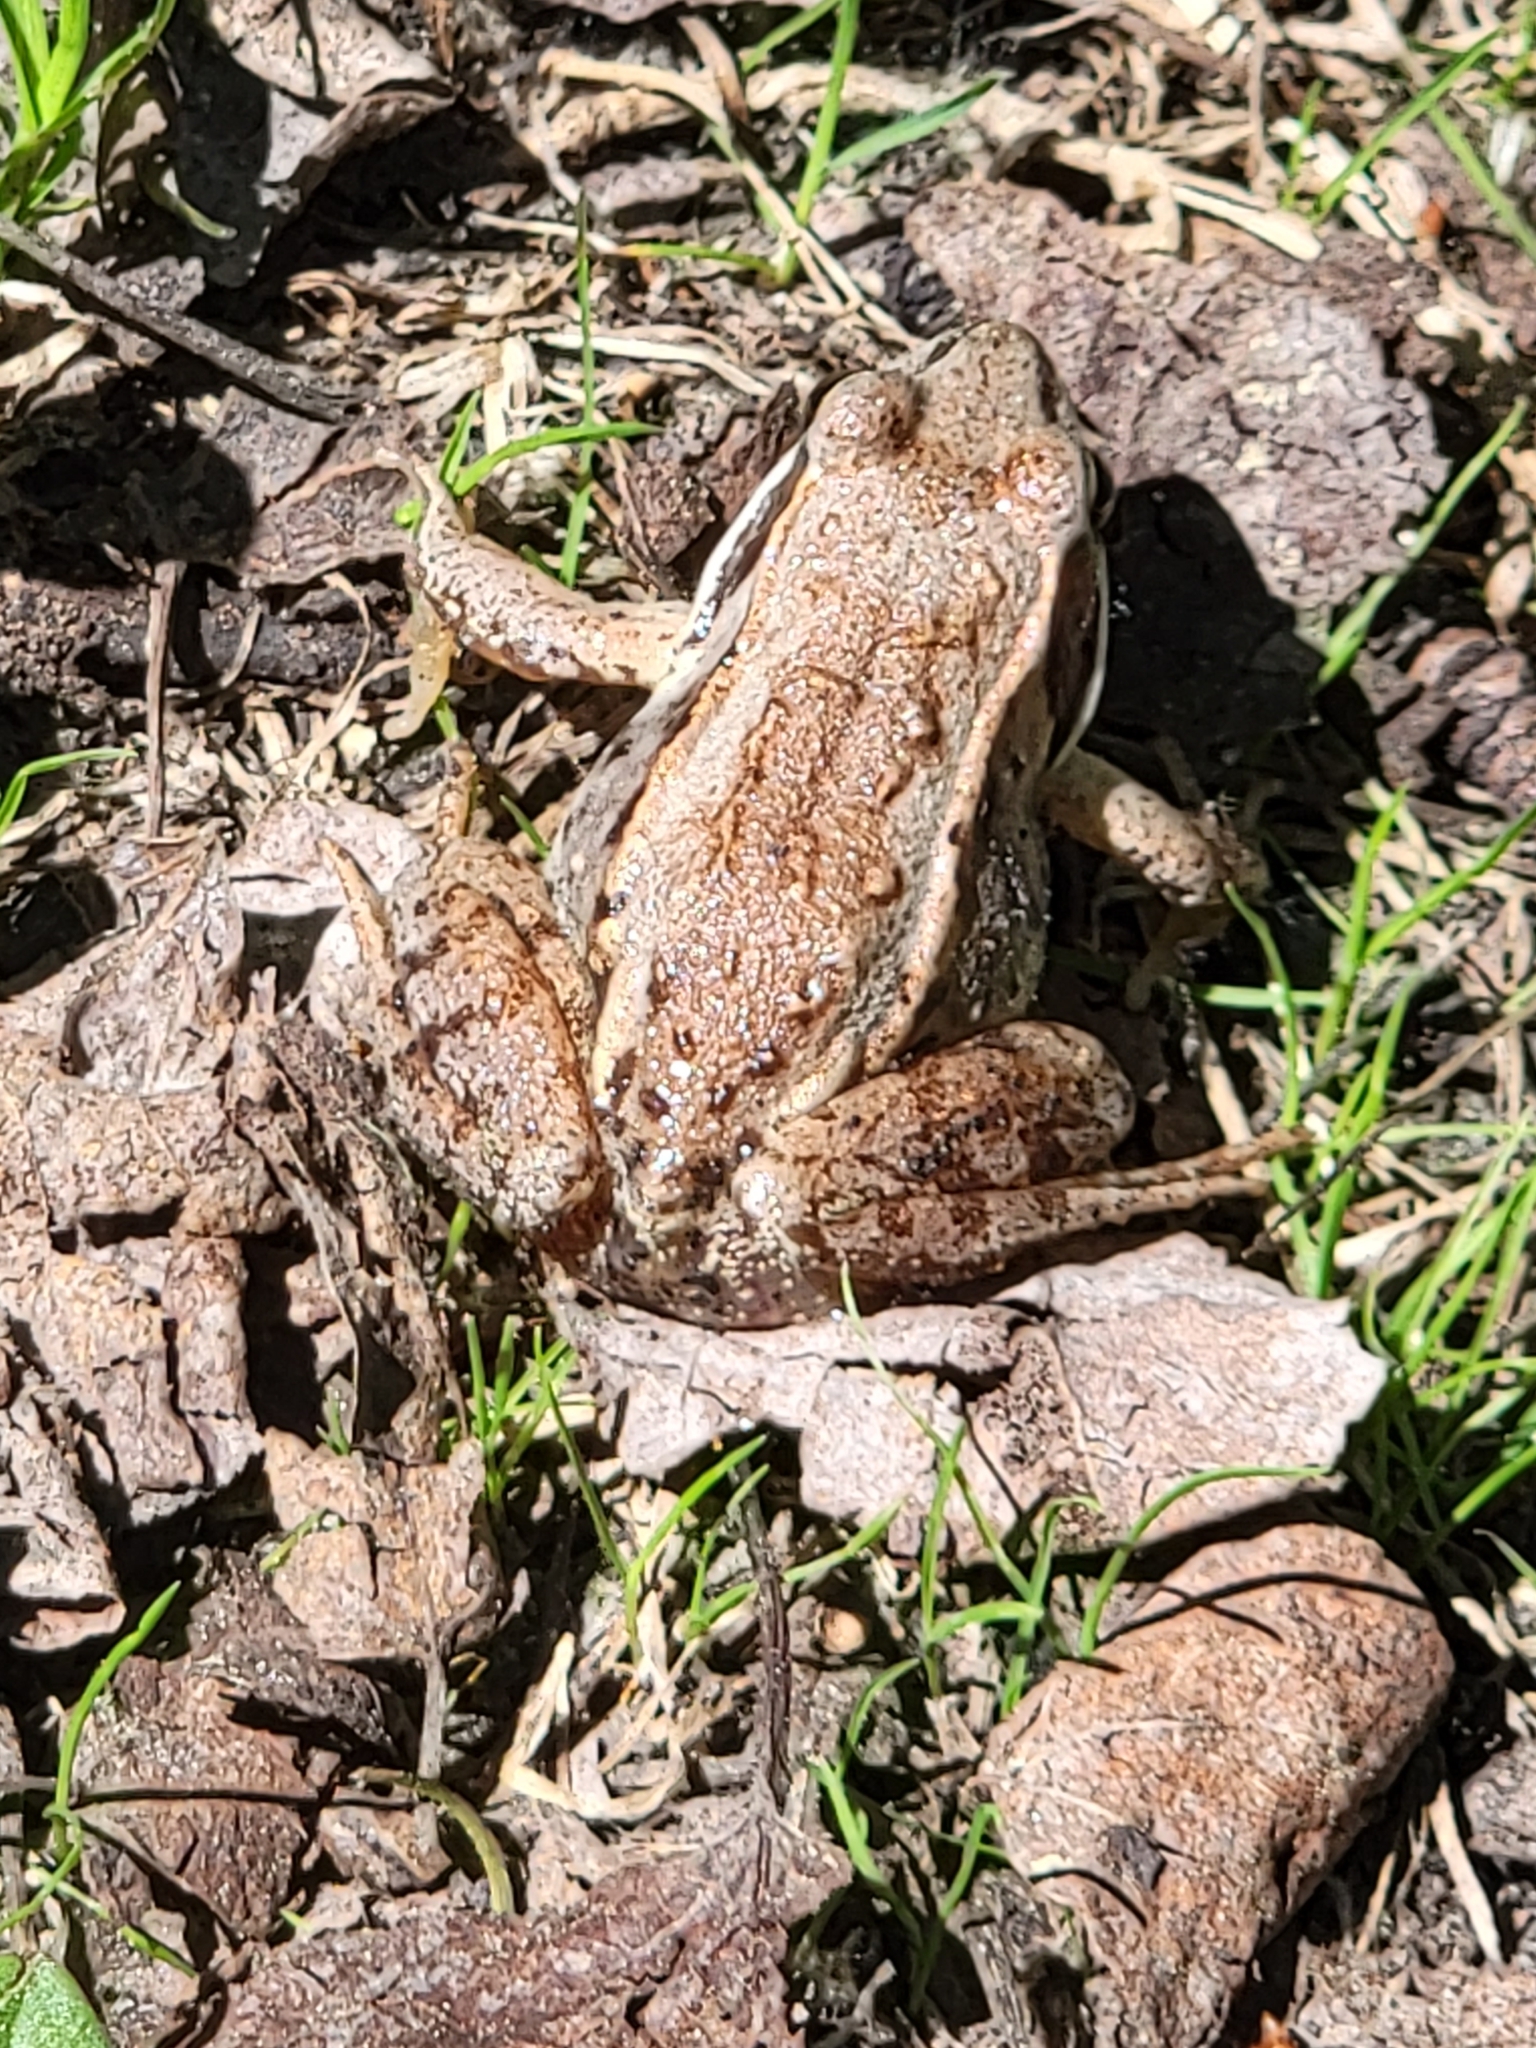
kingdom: Animalia
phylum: Chordata
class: Amphibia
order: Anura
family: Ranidae
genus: Lithobates
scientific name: Lithobates sylvaticus
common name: Wood frog
